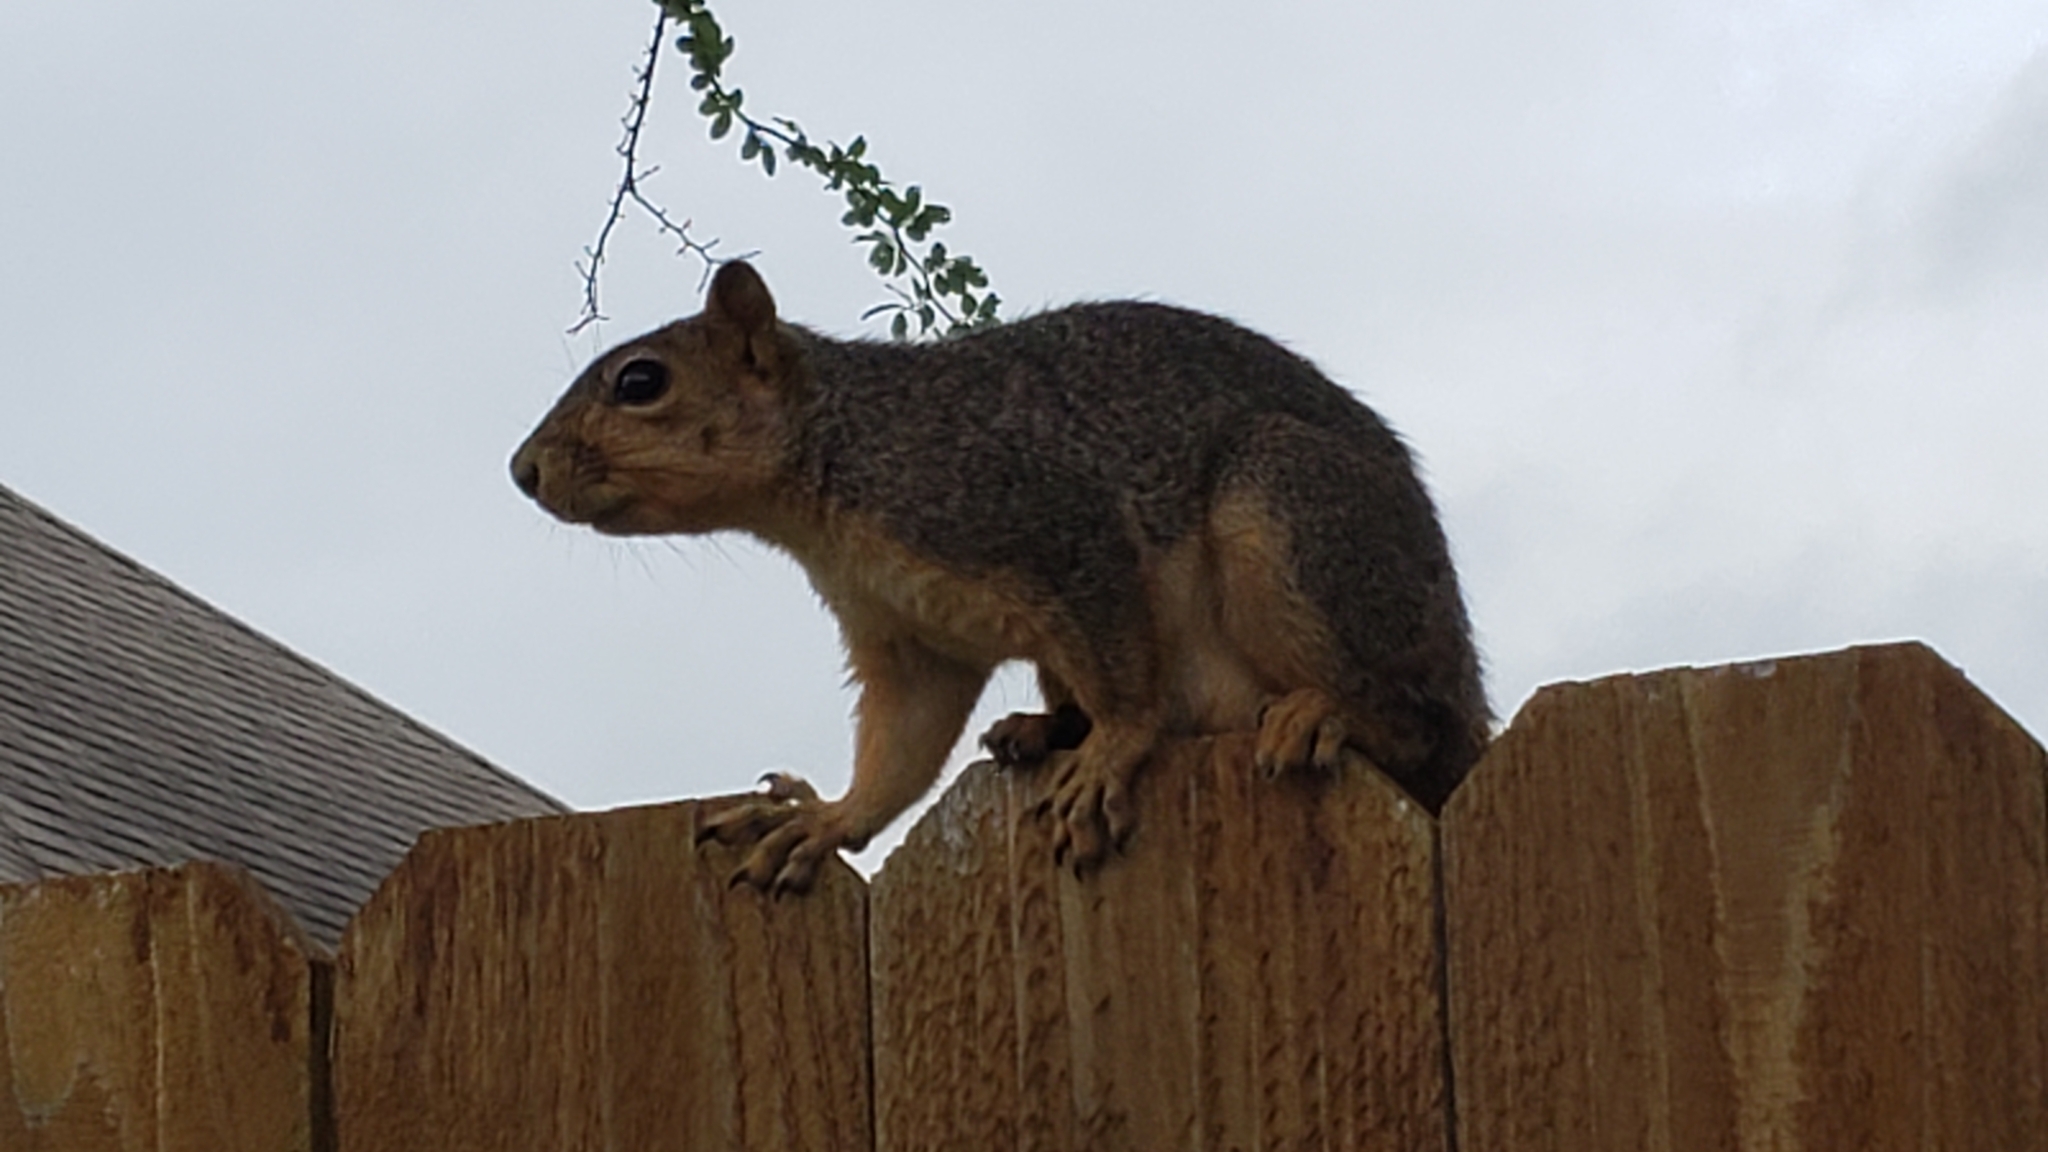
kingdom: Animalia
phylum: Chordata
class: Mammalia
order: Rodentia
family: Sciuridae
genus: Sciurus
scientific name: Sciurus niger
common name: Fox squirrel
